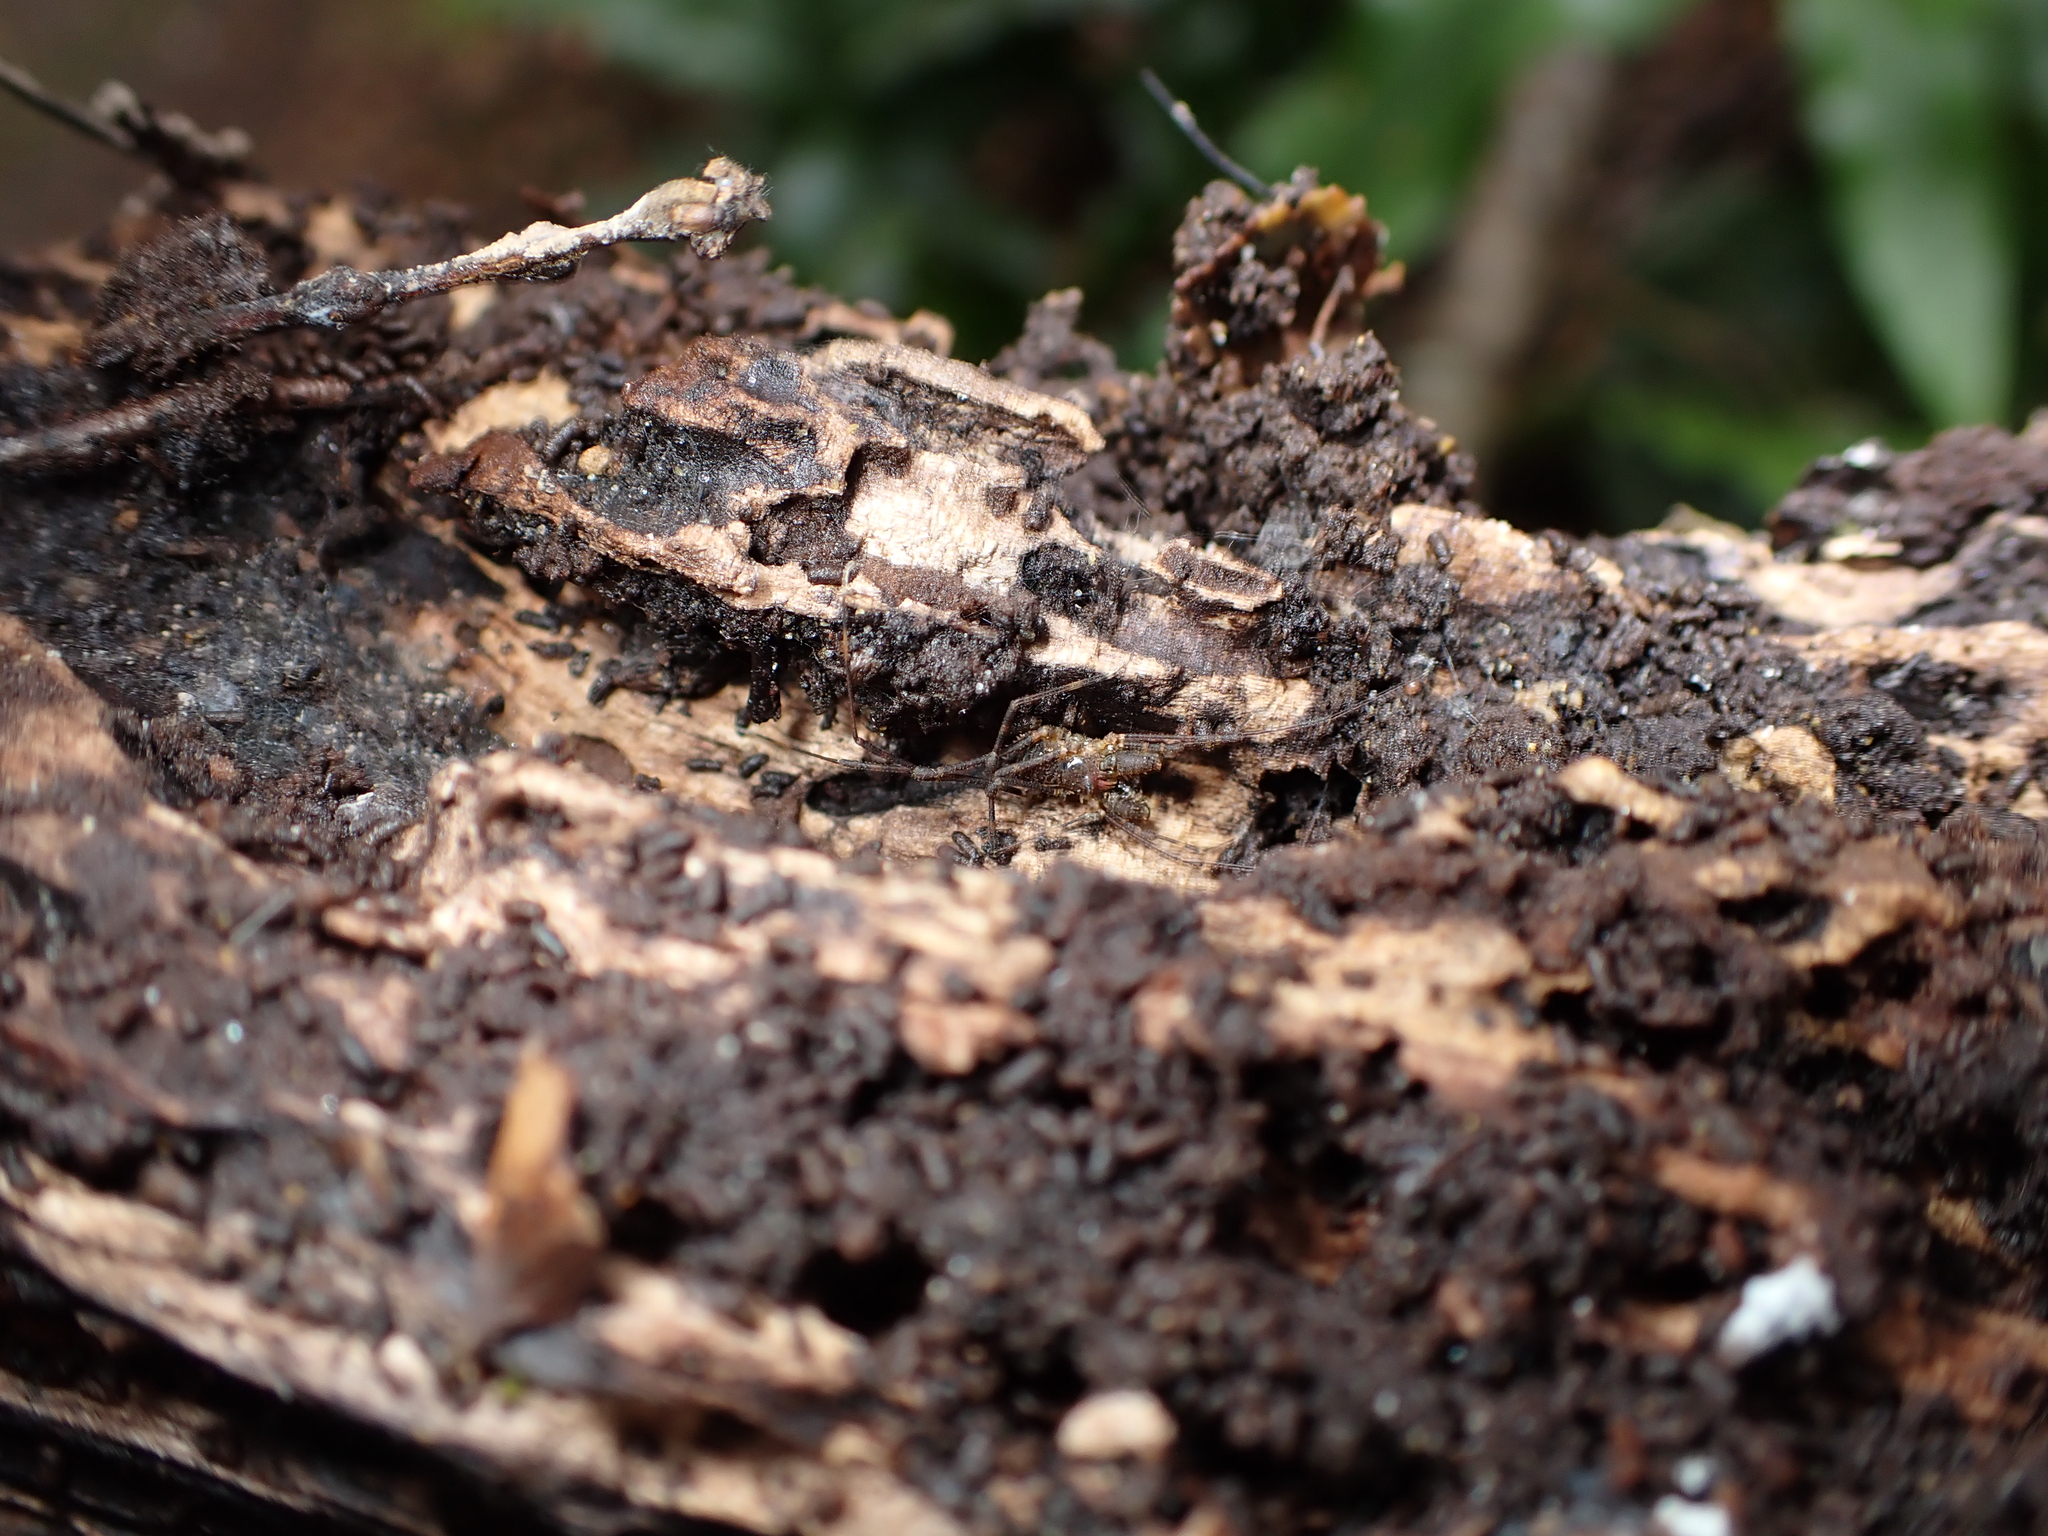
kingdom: Animalia
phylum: Arthropoda
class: Arachnida
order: Opiliones
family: Triaenonychidae
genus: Algidia
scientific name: Algidia interrupta
